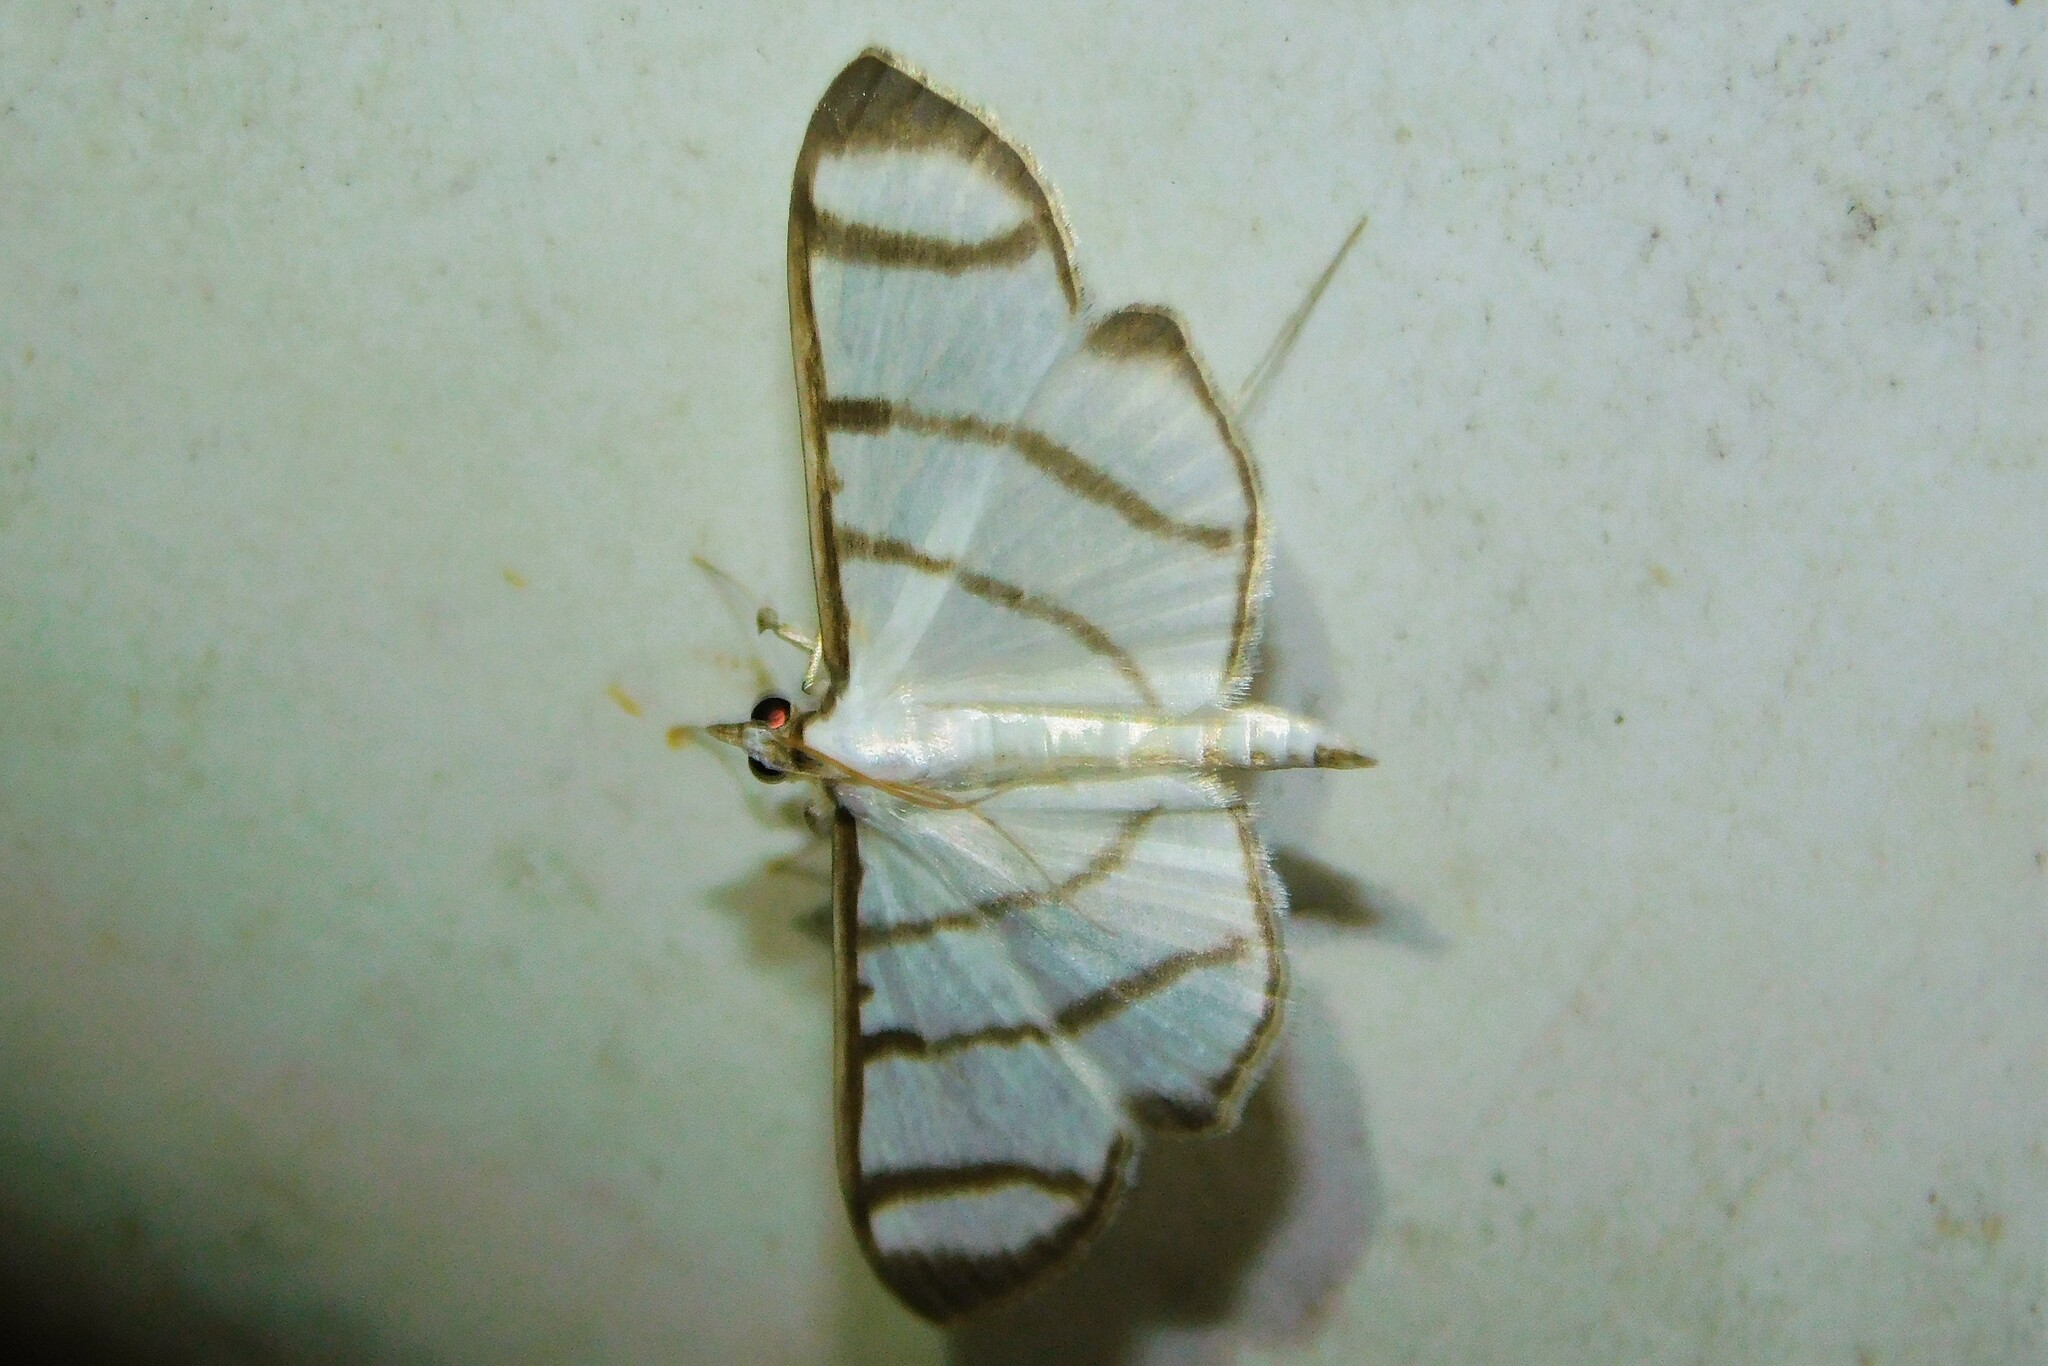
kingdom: Animalia
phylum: Arthropoda
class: Insecta
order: Lepidoptera
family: Crambidae
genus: Zebronia
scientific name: Zebronia phenice
